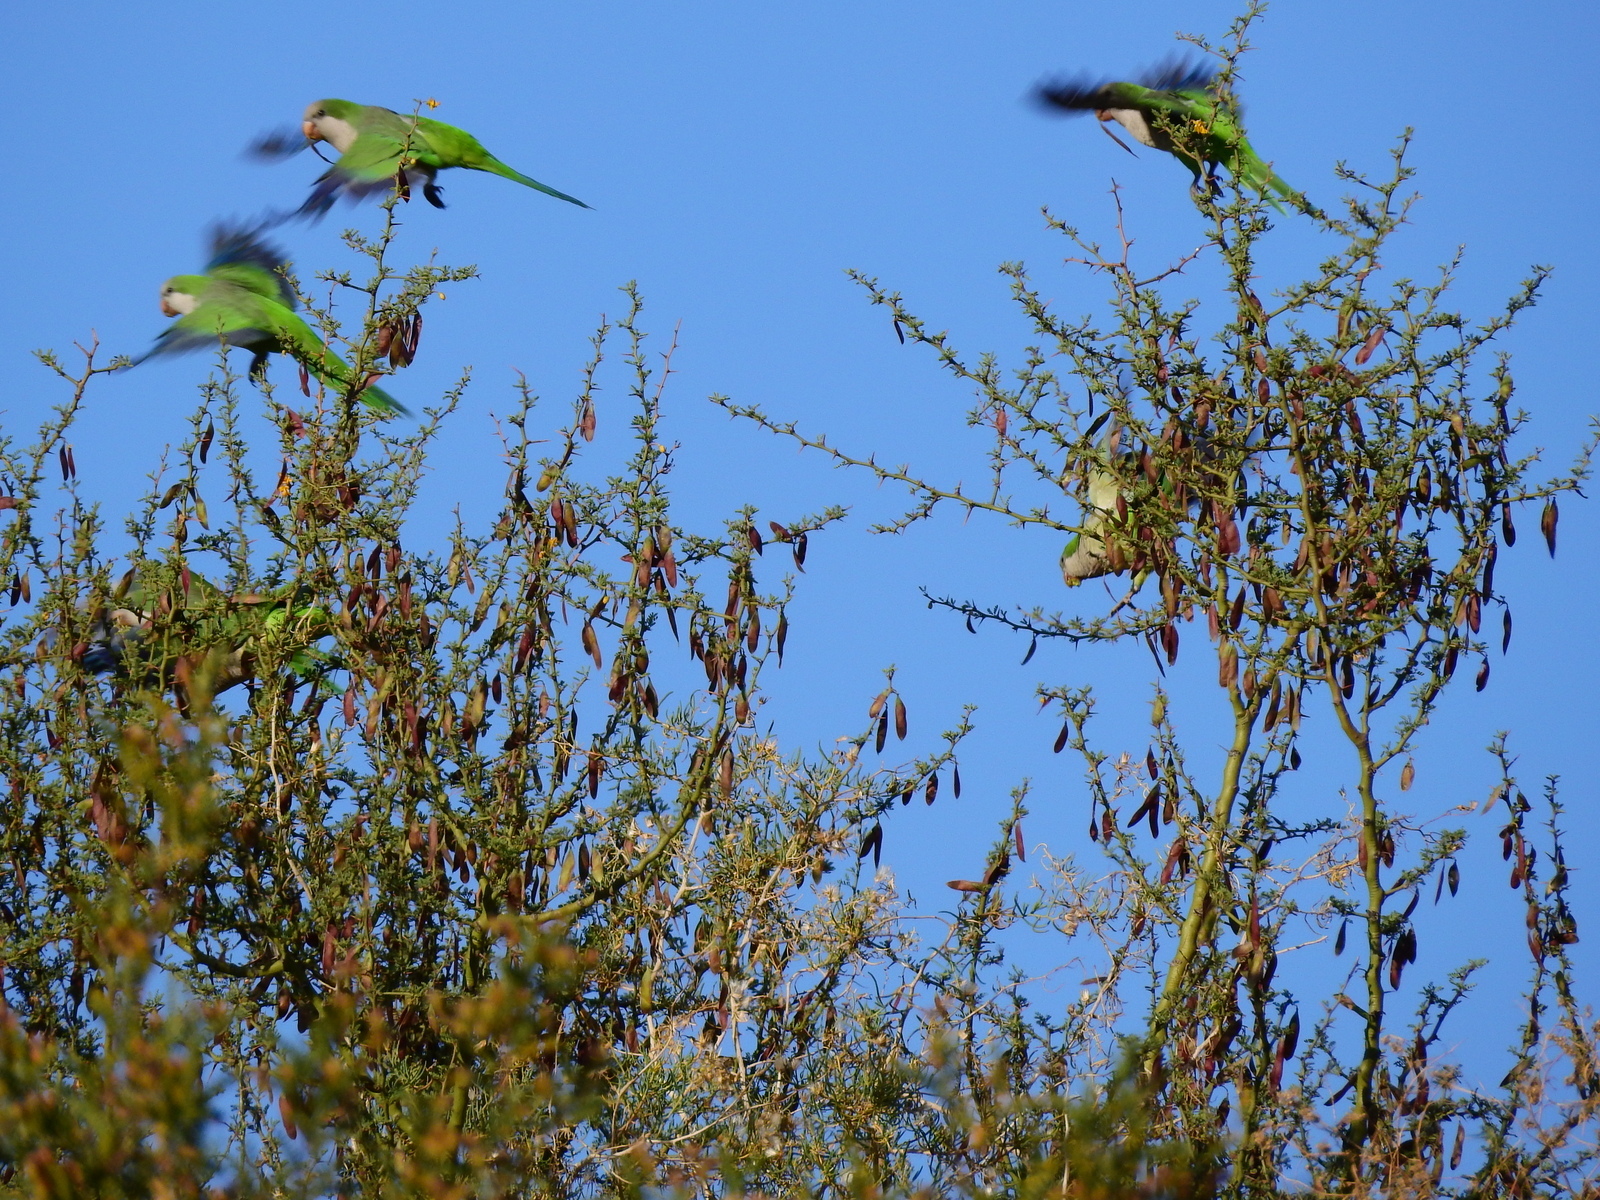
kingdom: Animalia
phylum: Chordata
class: Aves
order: Psittaciformes
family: Psittacidae
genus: Myiopsitta
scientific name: Myiopsitta monachus
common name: Monk parakeet
